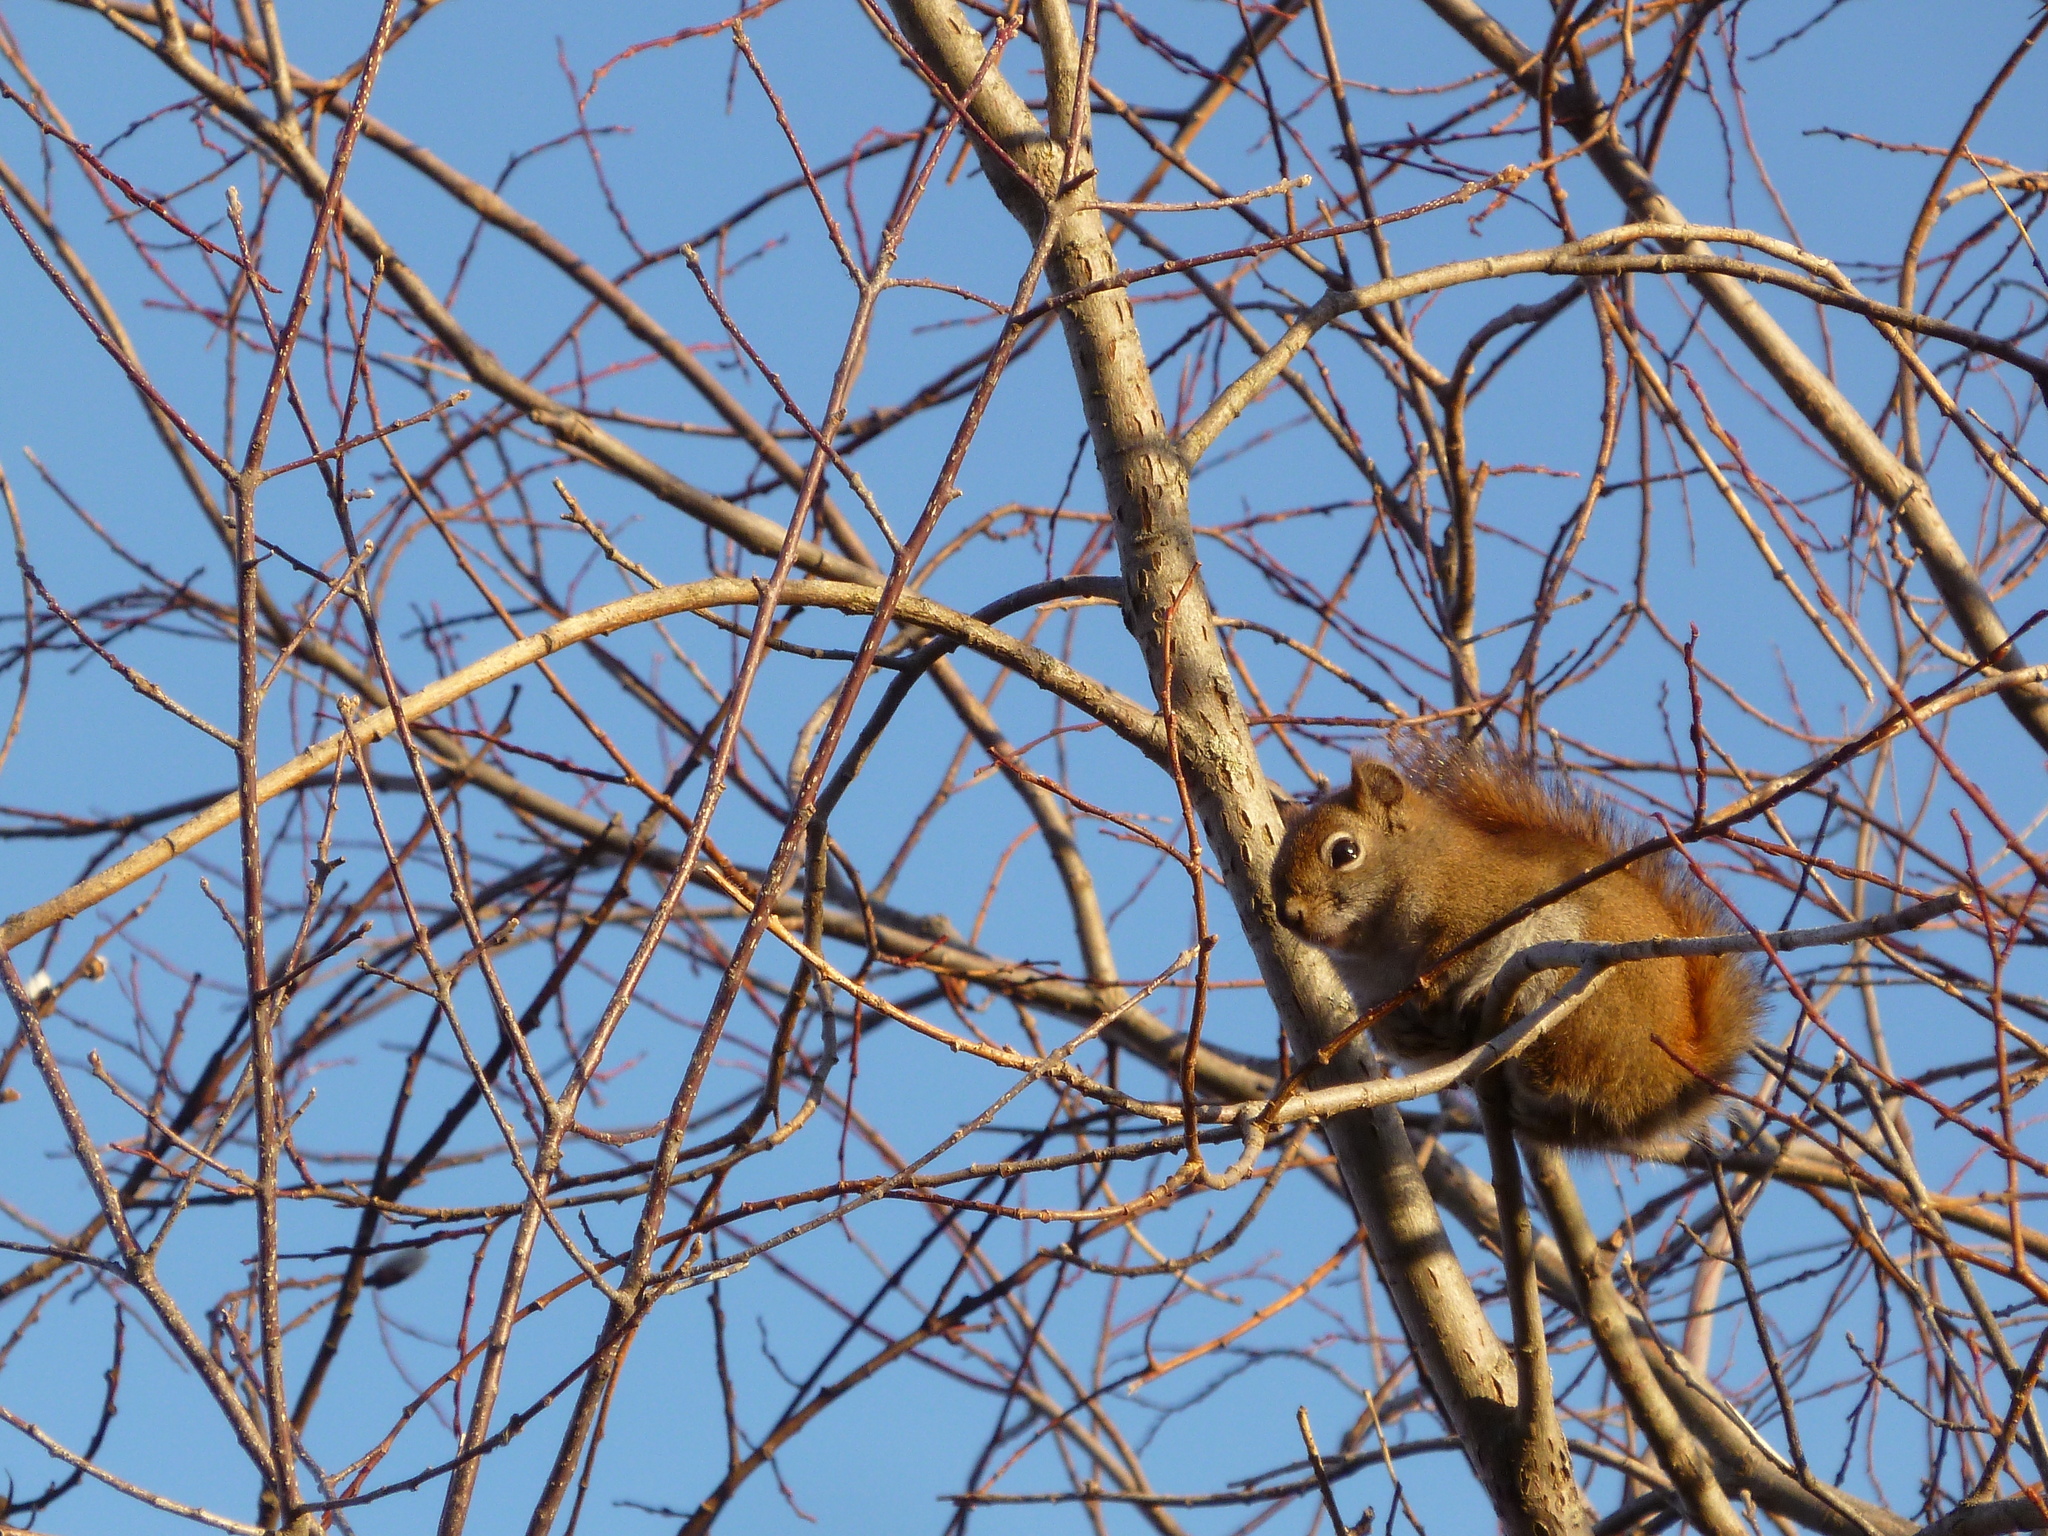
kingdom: Animalia
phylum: Chordata
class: Mammalia
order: Rodentia
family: Sciuridae
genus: Tamiasciurus
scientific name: Tamiasciurus hudsonicus
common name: Red squirrel
